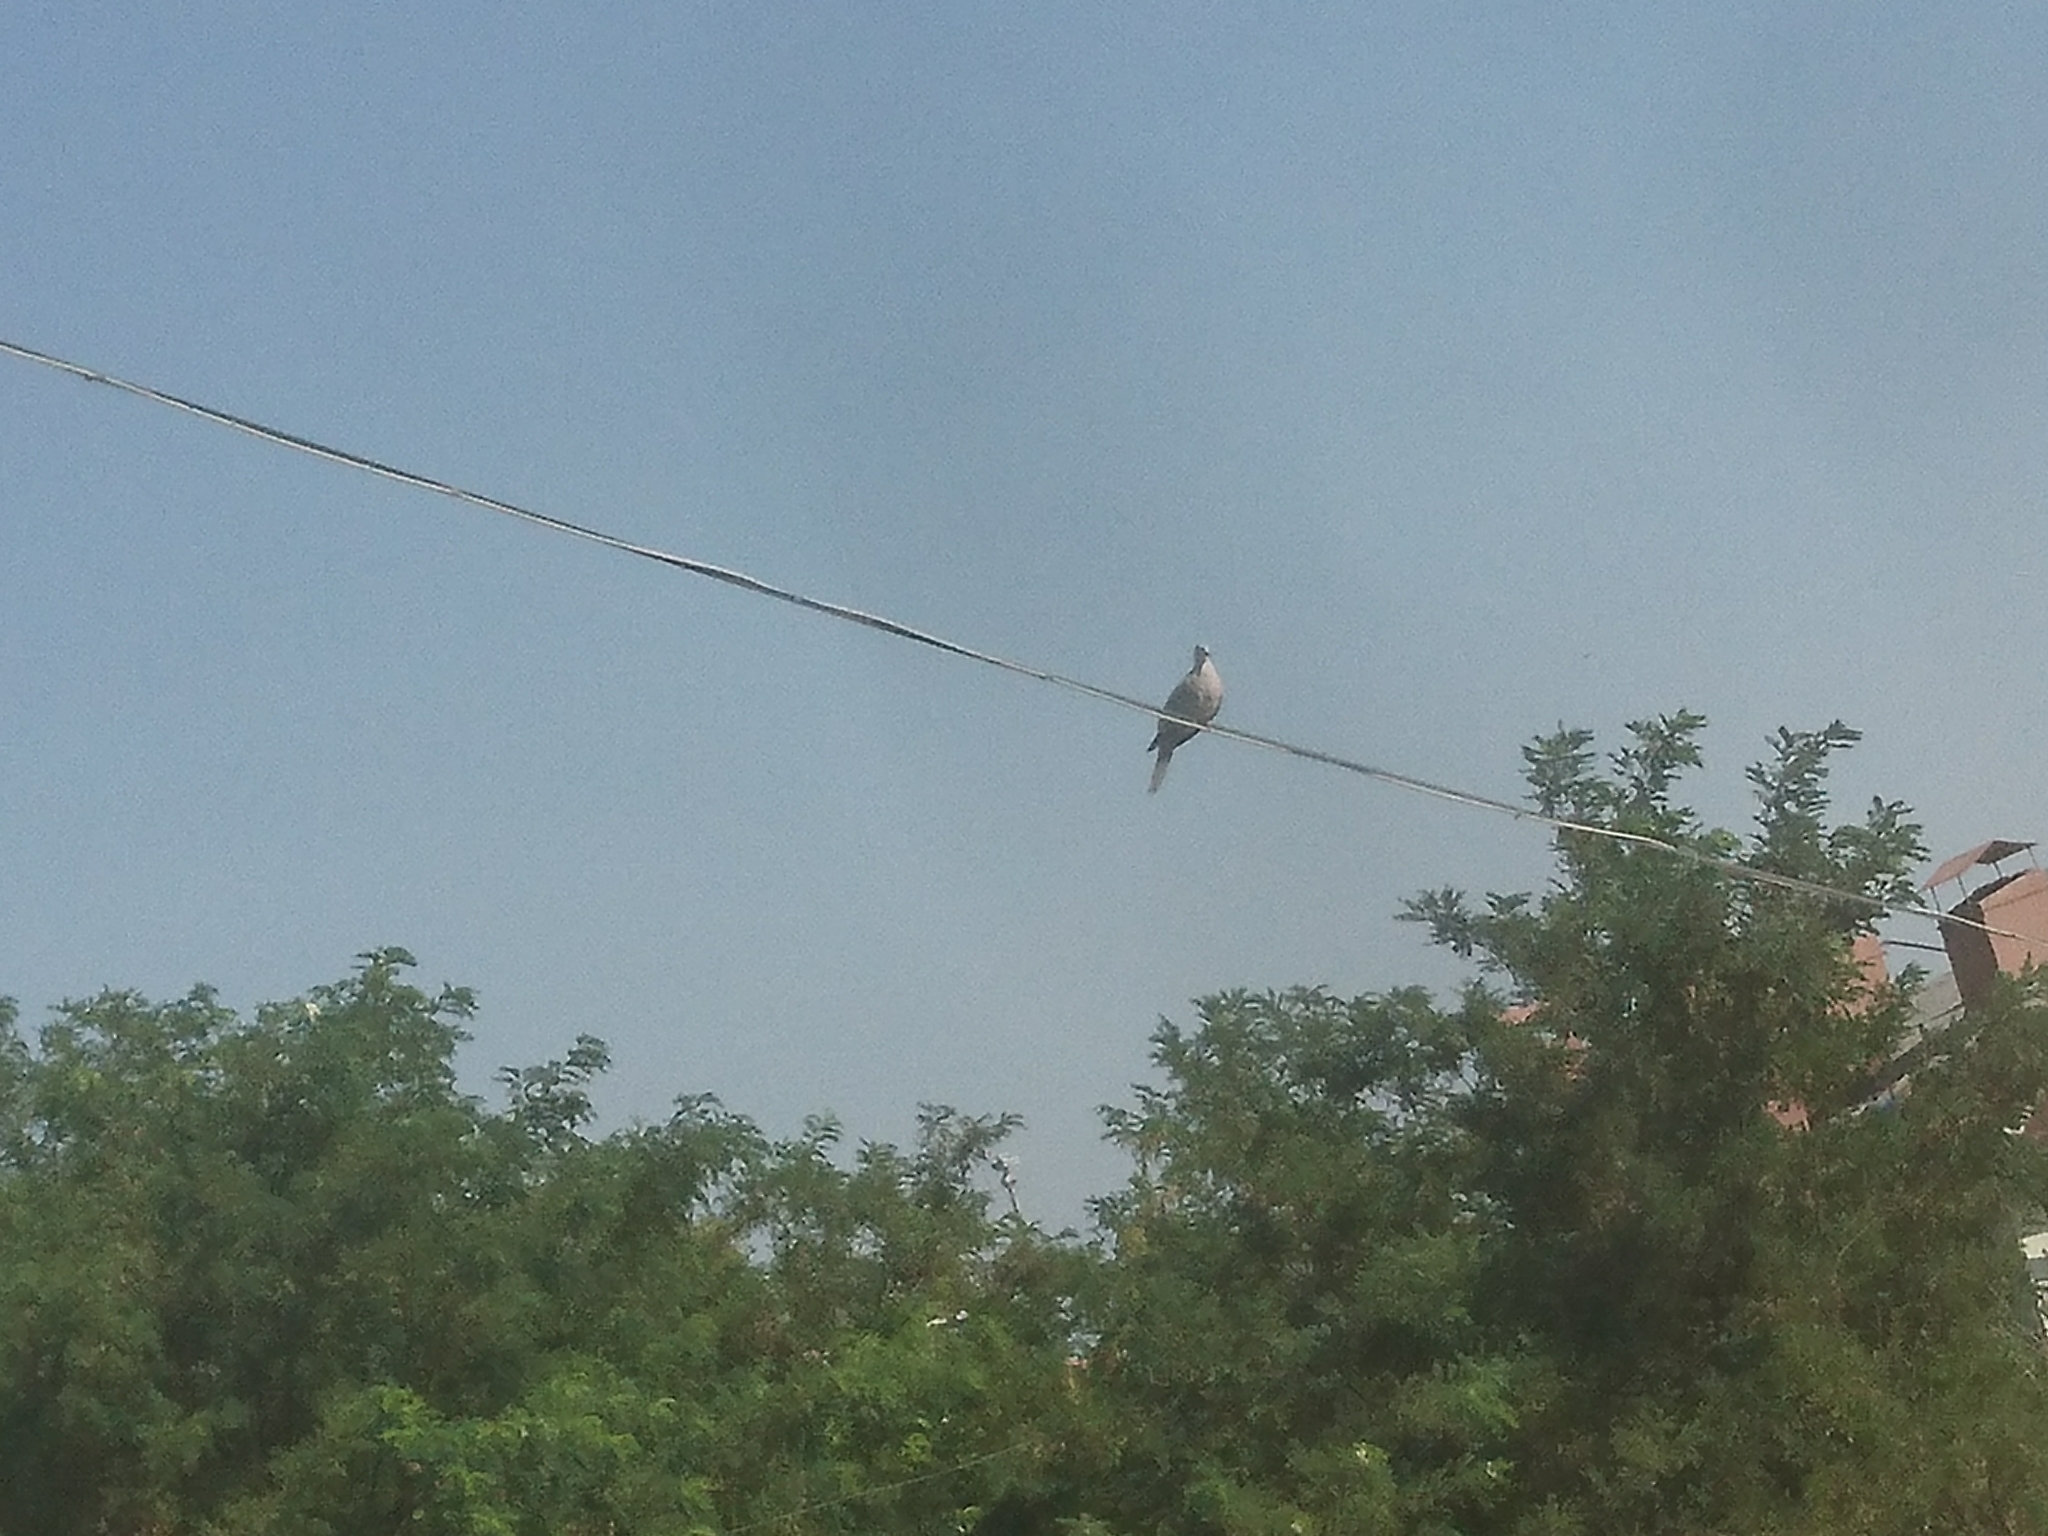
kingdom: Animalia
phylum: Chordata
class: Aves
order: Columbiformes
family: Columbidae
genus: Streptopelia
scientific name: Streptopelia decaocto
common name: Eurasian collared dove
